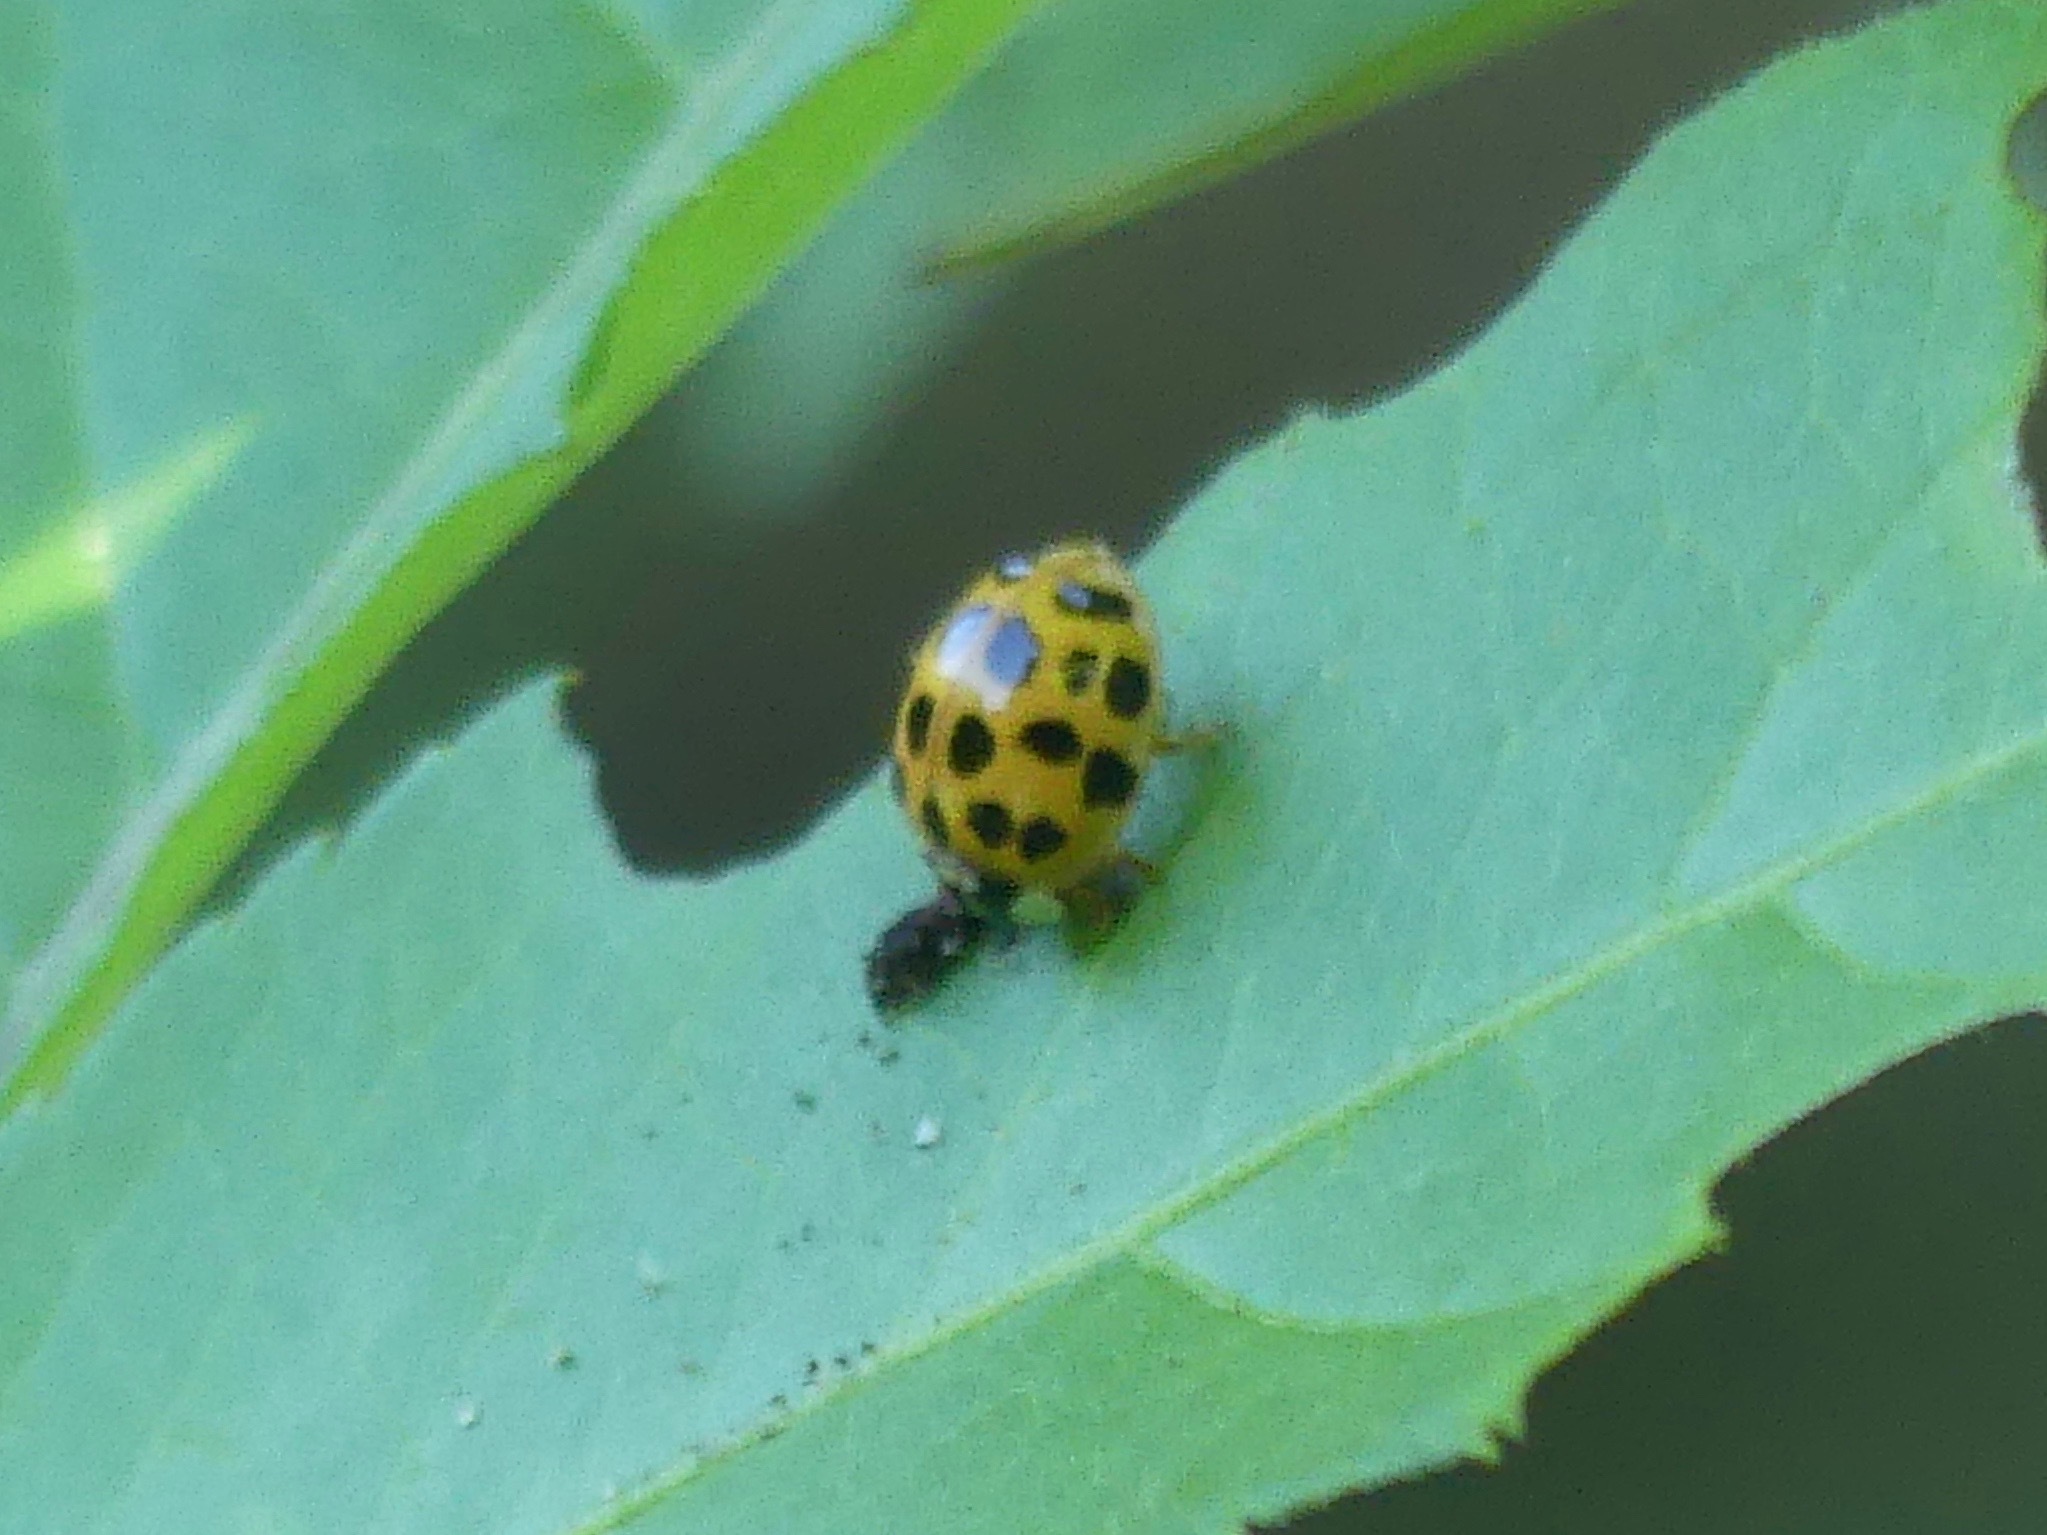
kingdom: Animalia
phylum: Arthropoda
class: Insecta
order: Coleoptera
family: Coccinellidae
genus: Harmonia
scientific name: Harmonia axyridis
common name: Harlequin ladybird
